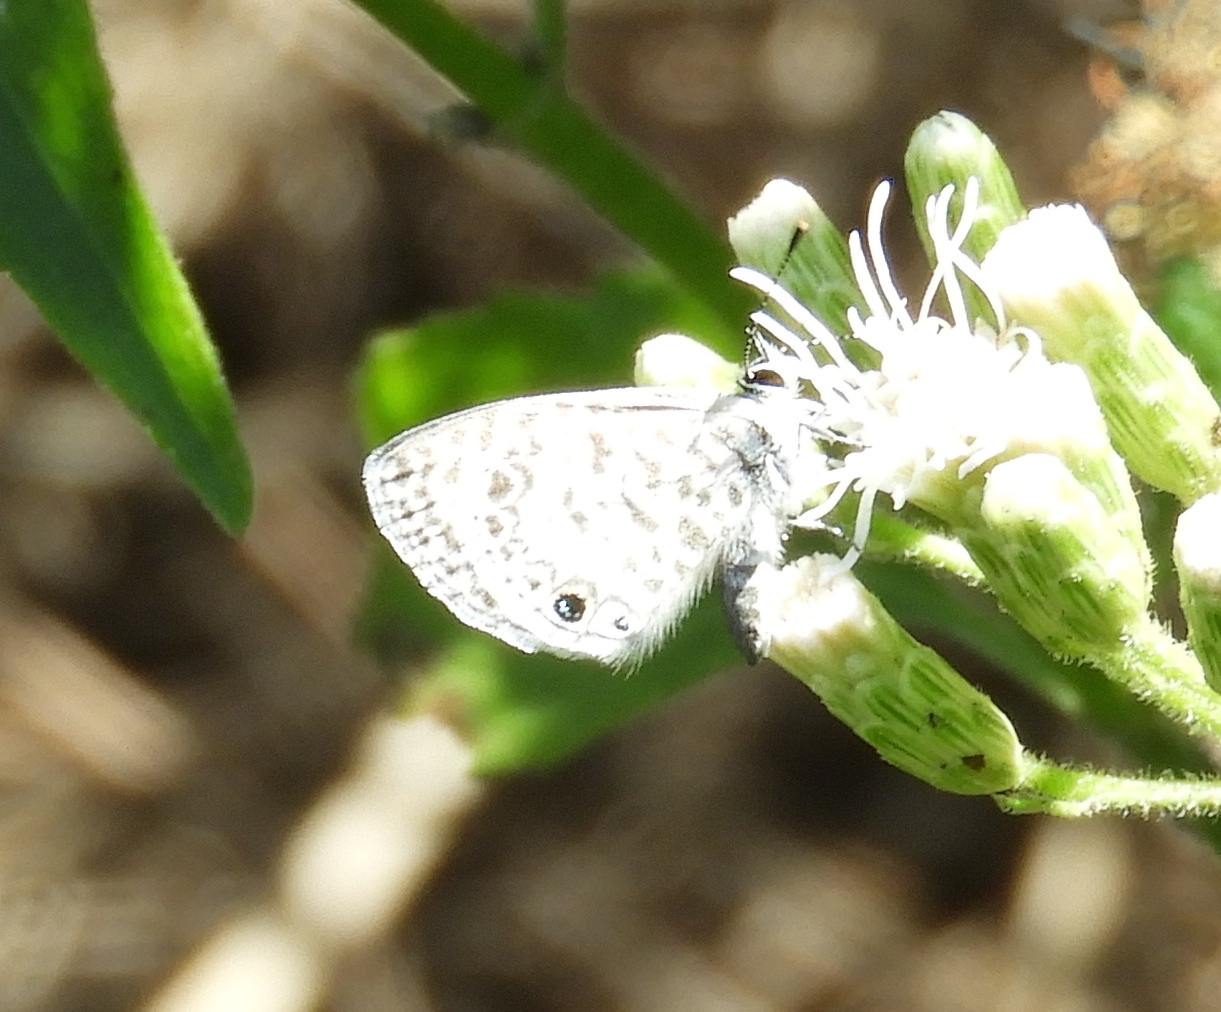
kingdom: Animalia
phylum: Arthropoda
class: Insecta
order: Lepidoptera
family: Lycaenidae
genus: Leptotes
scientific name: Leptotes cassius
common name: Cassius blue
